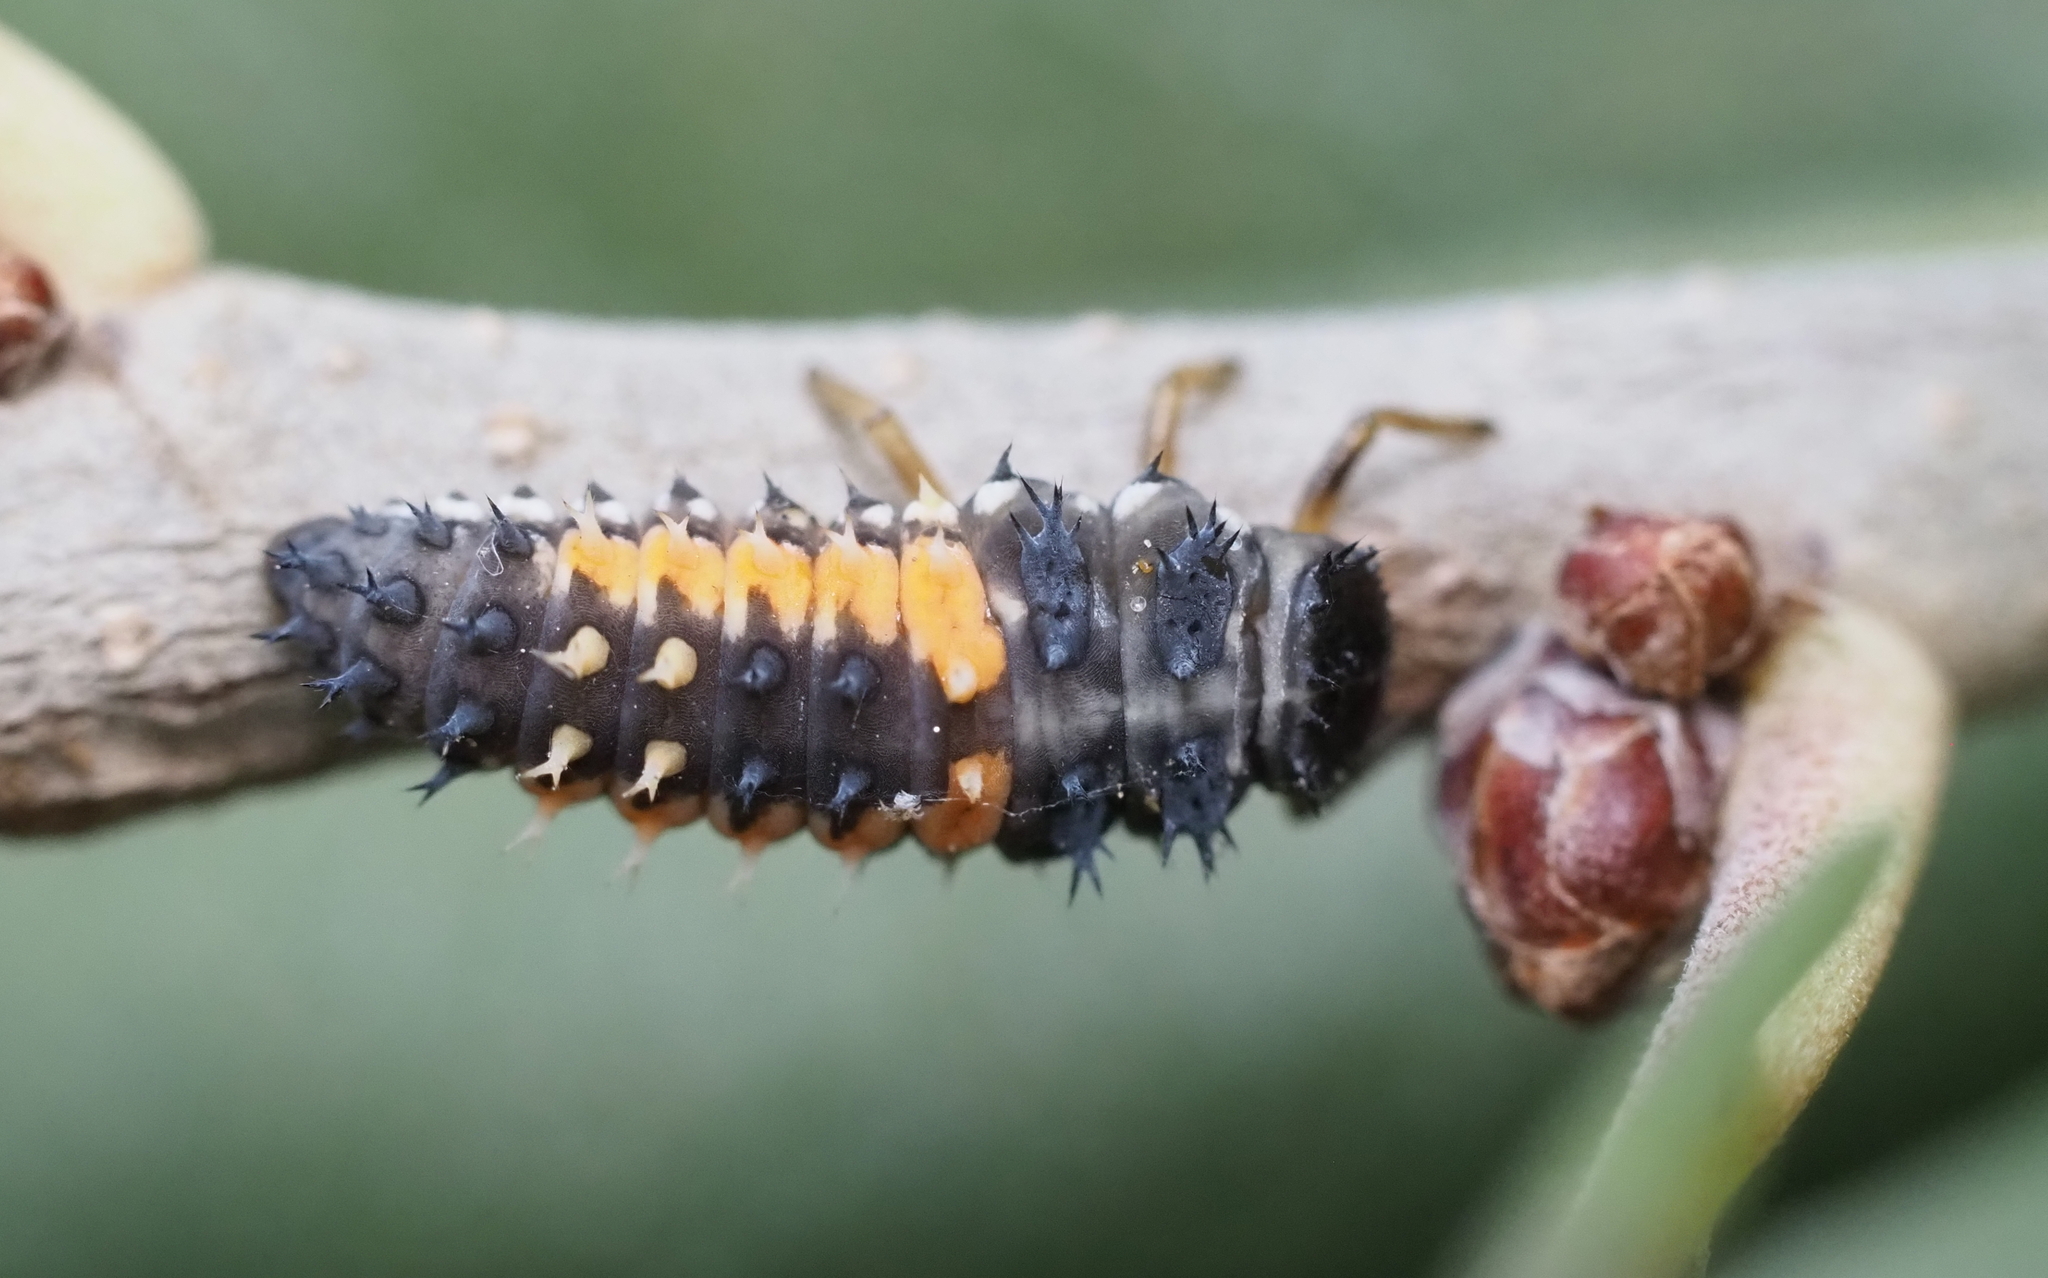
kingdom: Animalia
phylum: Arthropoda
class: Insecta
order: Coleoptera
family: Coccinellidae
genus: Harmonia
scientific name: Harmonia axyridis
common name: Harlequin ladybird
